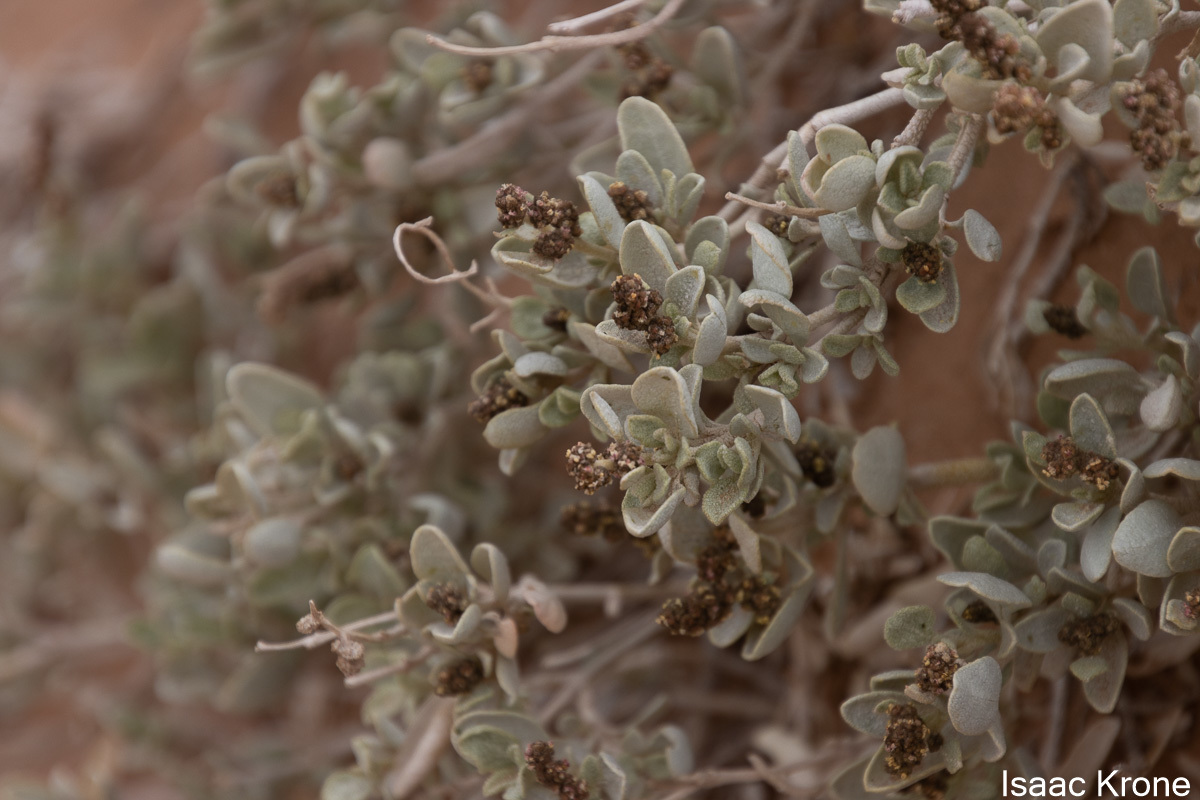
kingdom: Plantae
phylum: Tracheophyta
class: Magnoliopsida
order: Caryophyllales
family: Amaranthaceae
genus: Atriplex
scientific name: Atriplex confertifolia
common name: Shadscale
